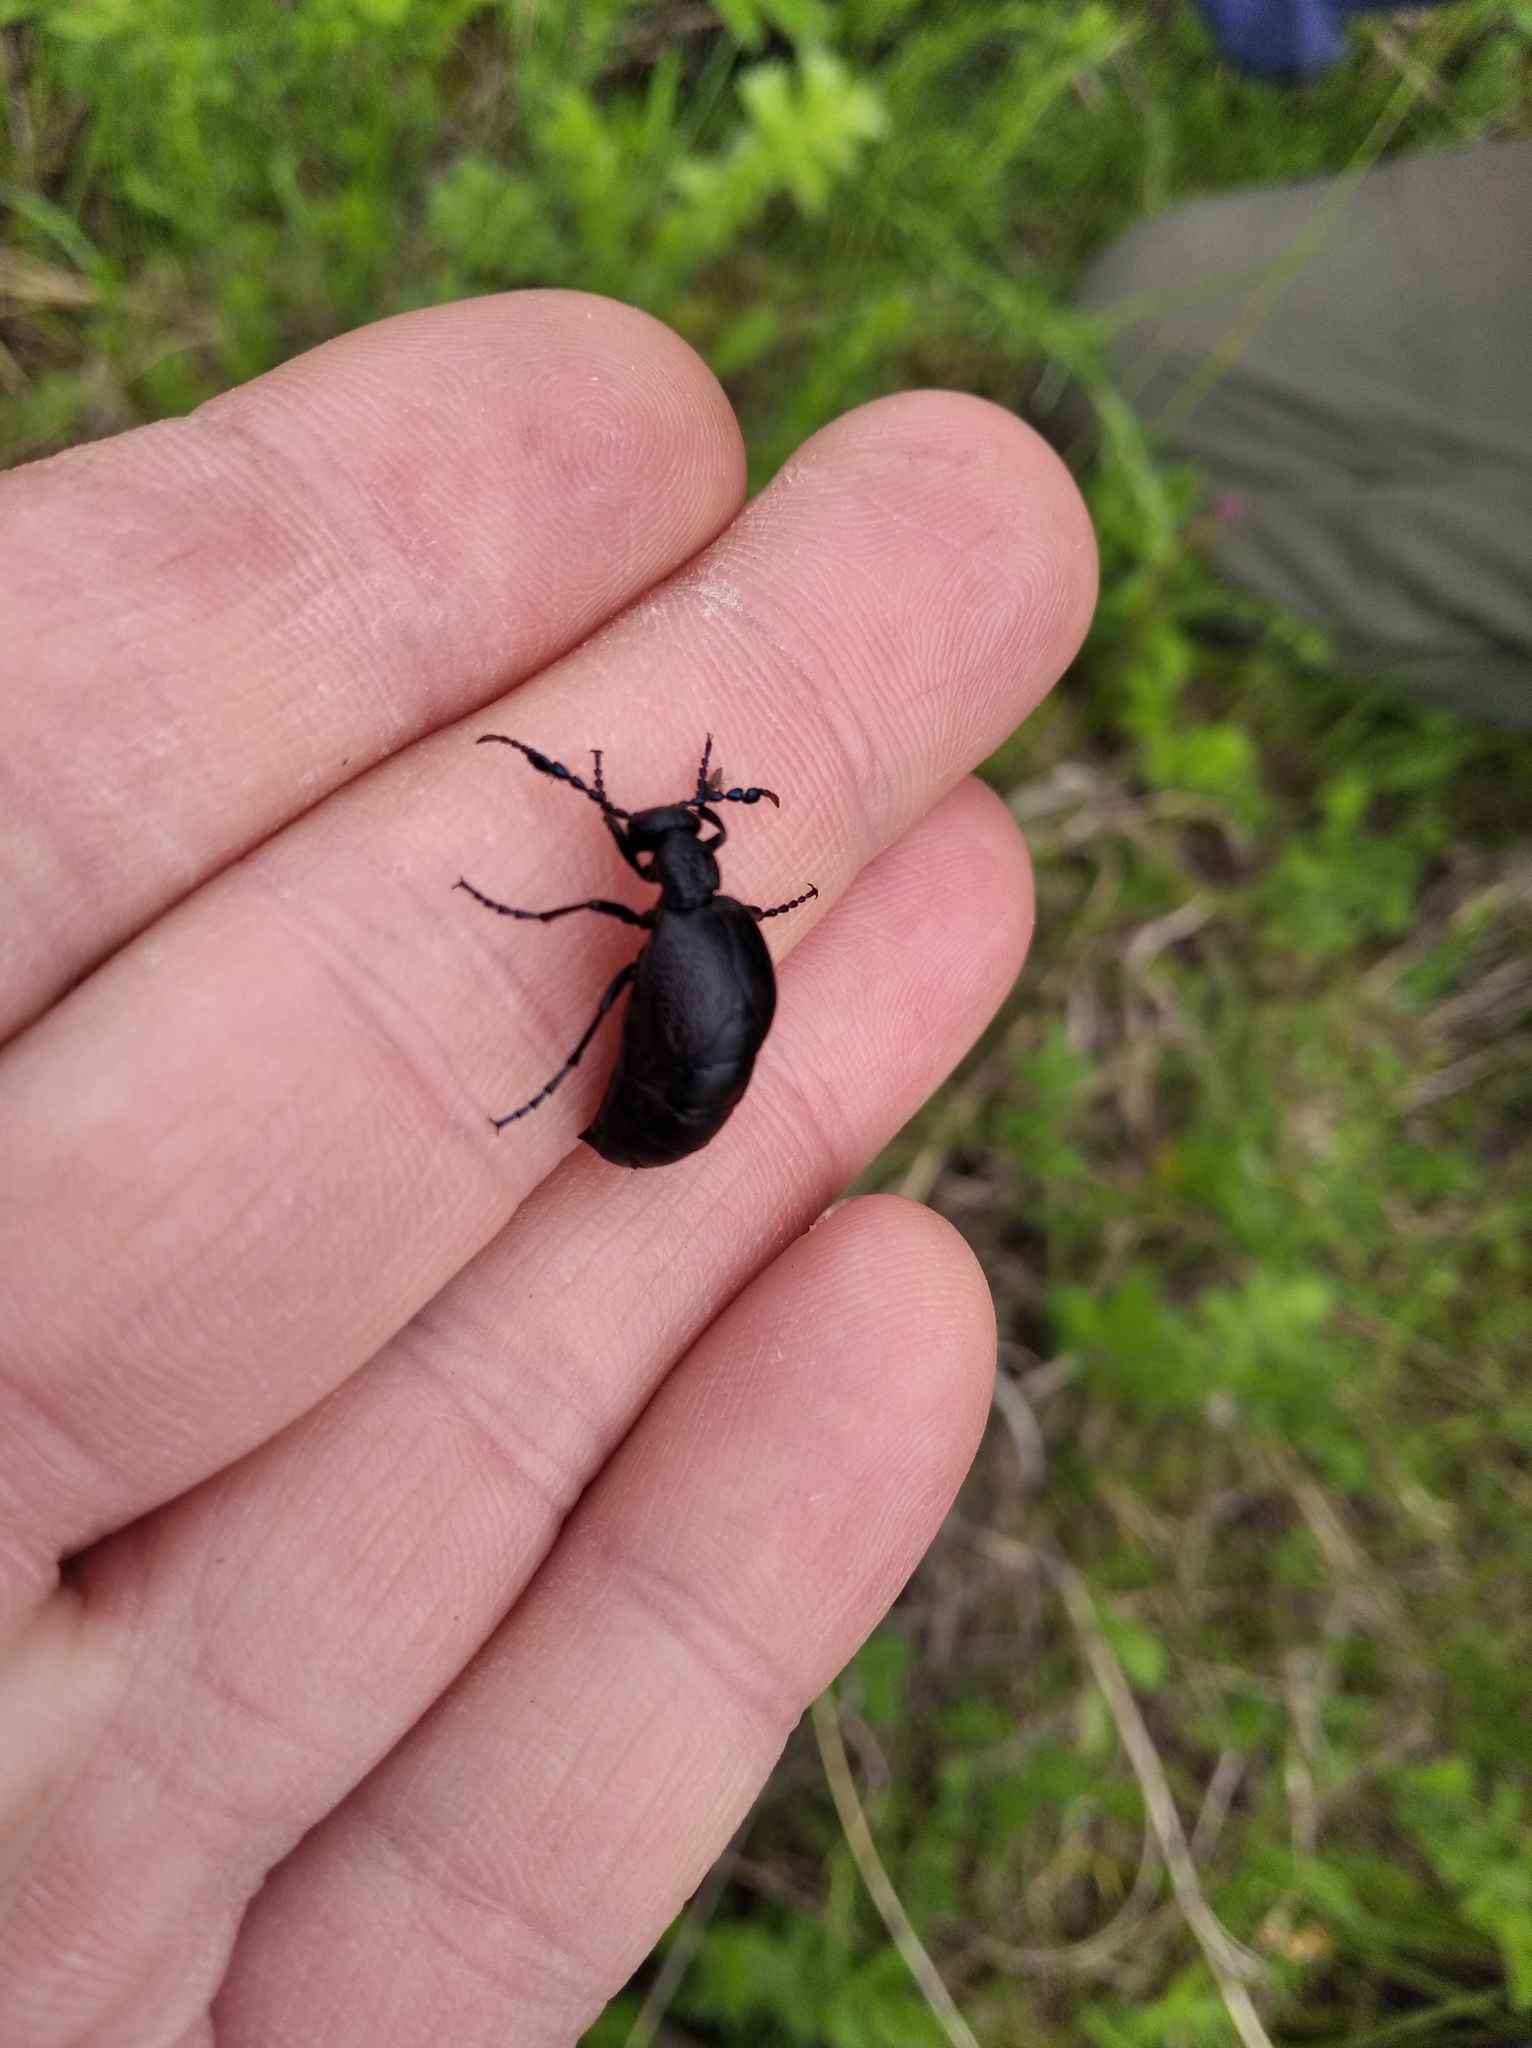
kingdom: Animalia
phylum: Arthropoda
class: Insecta
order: Coleoptera
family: Meloidae
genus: Meloe
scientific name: Meloe proscarabaeus
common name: Black oil-beetle
